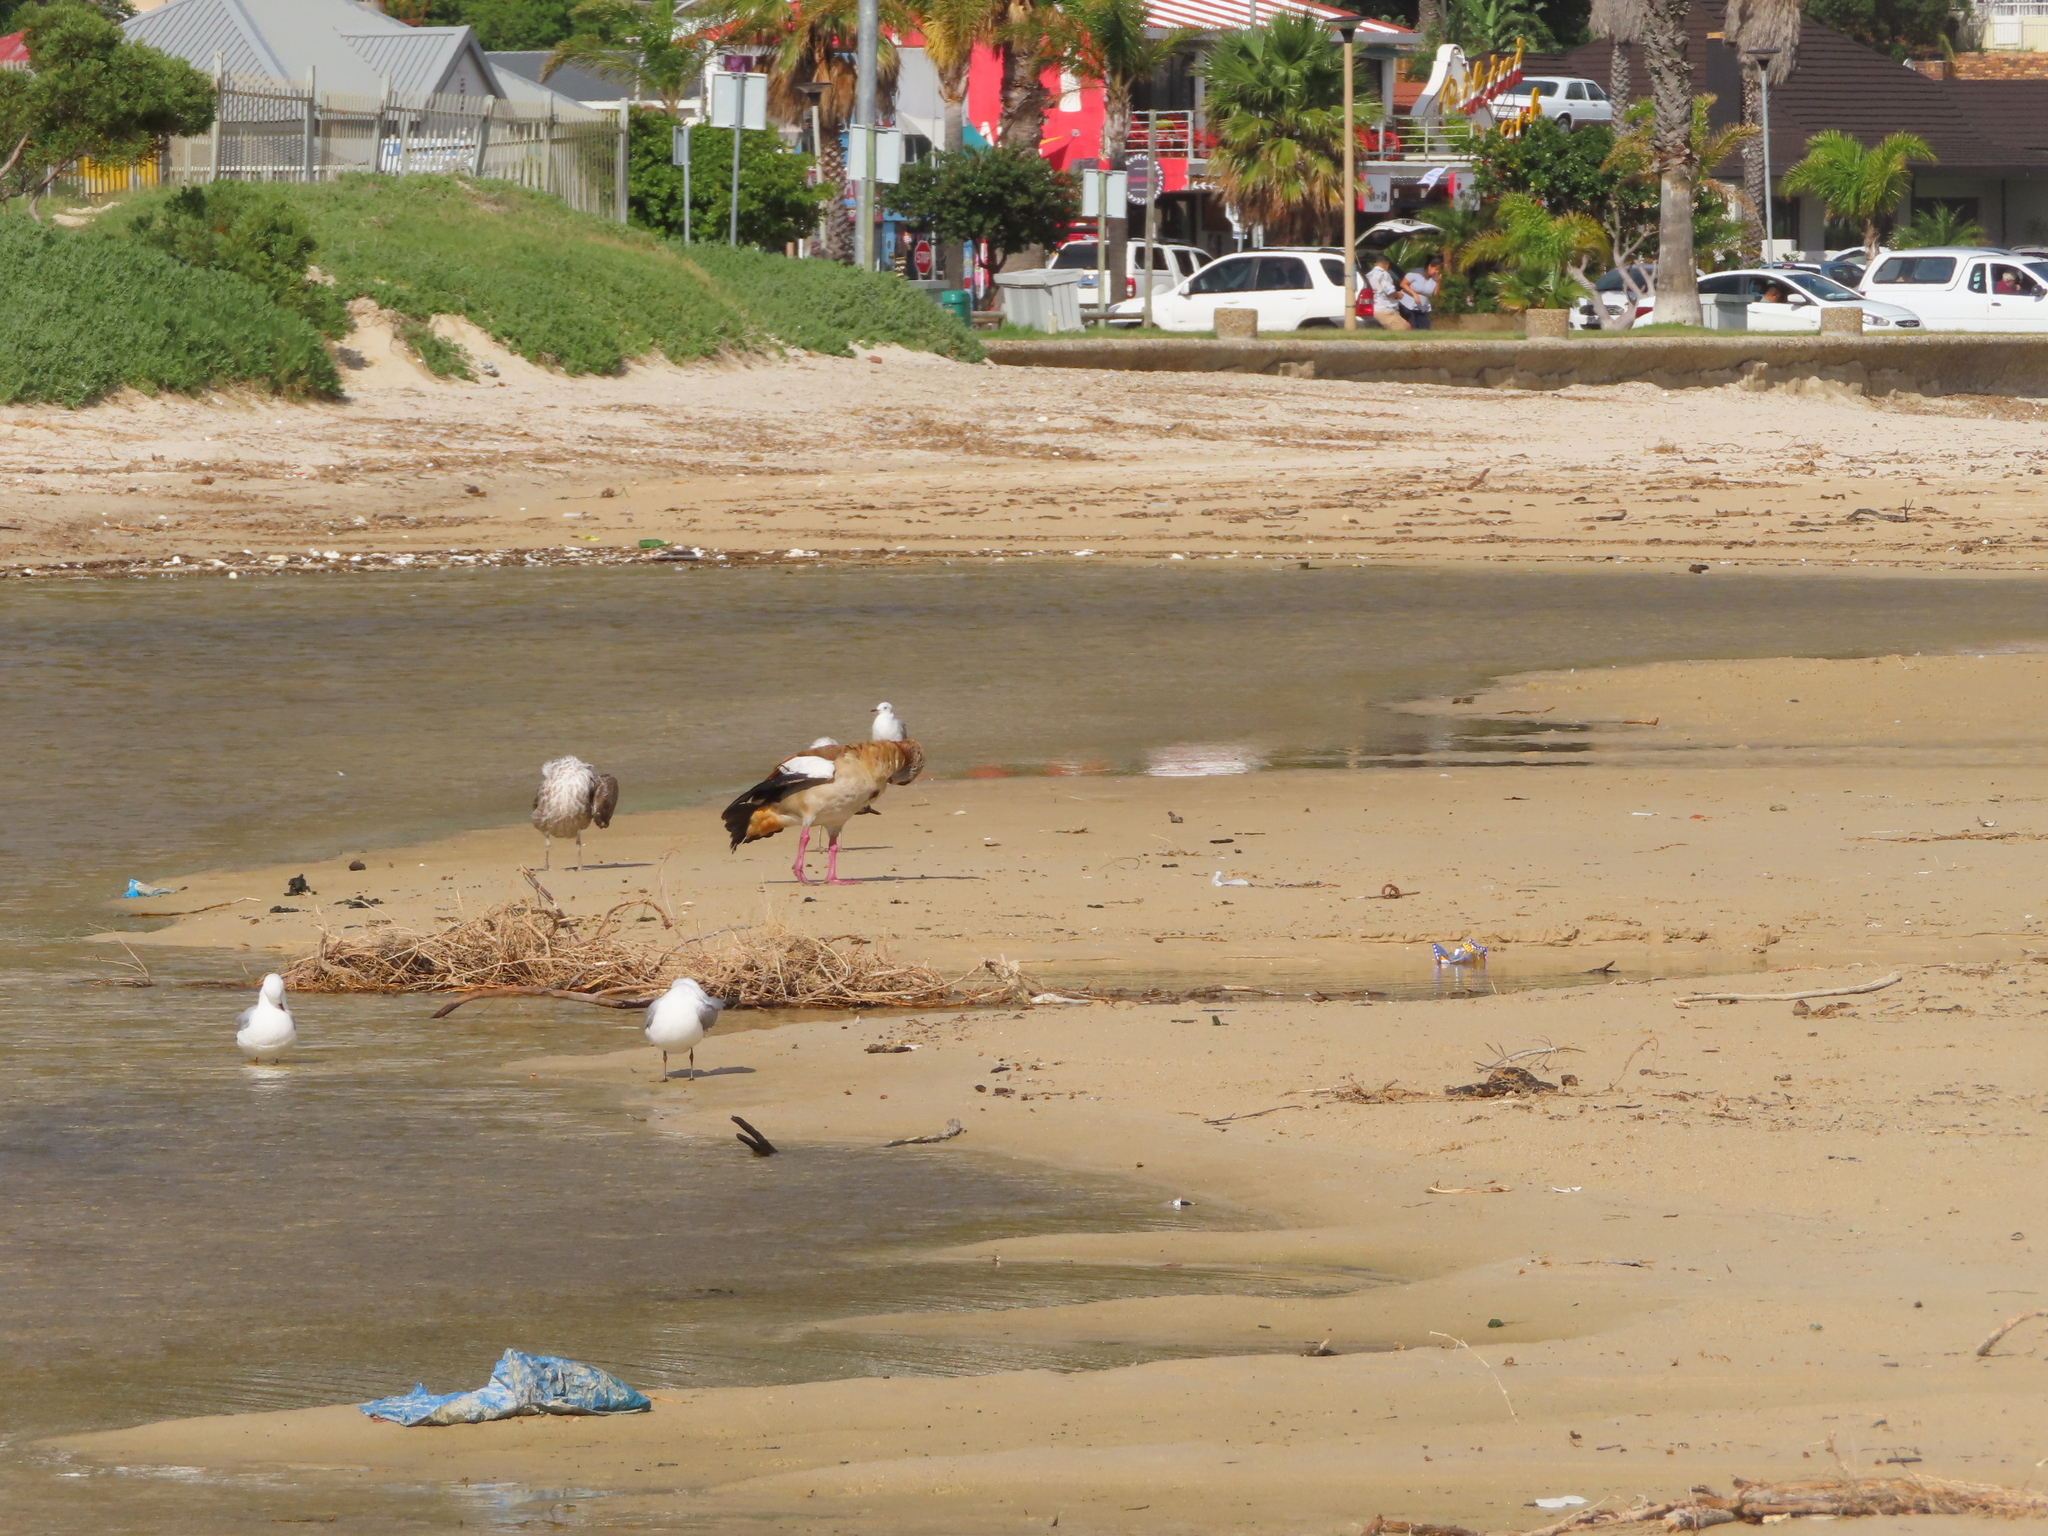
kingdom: Animalia
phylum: Chordata
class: Aves
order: Anseriformes
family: Anatidae
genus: Alopochen
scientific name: Alopochen aegyptiaca
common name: Egyptian goose
